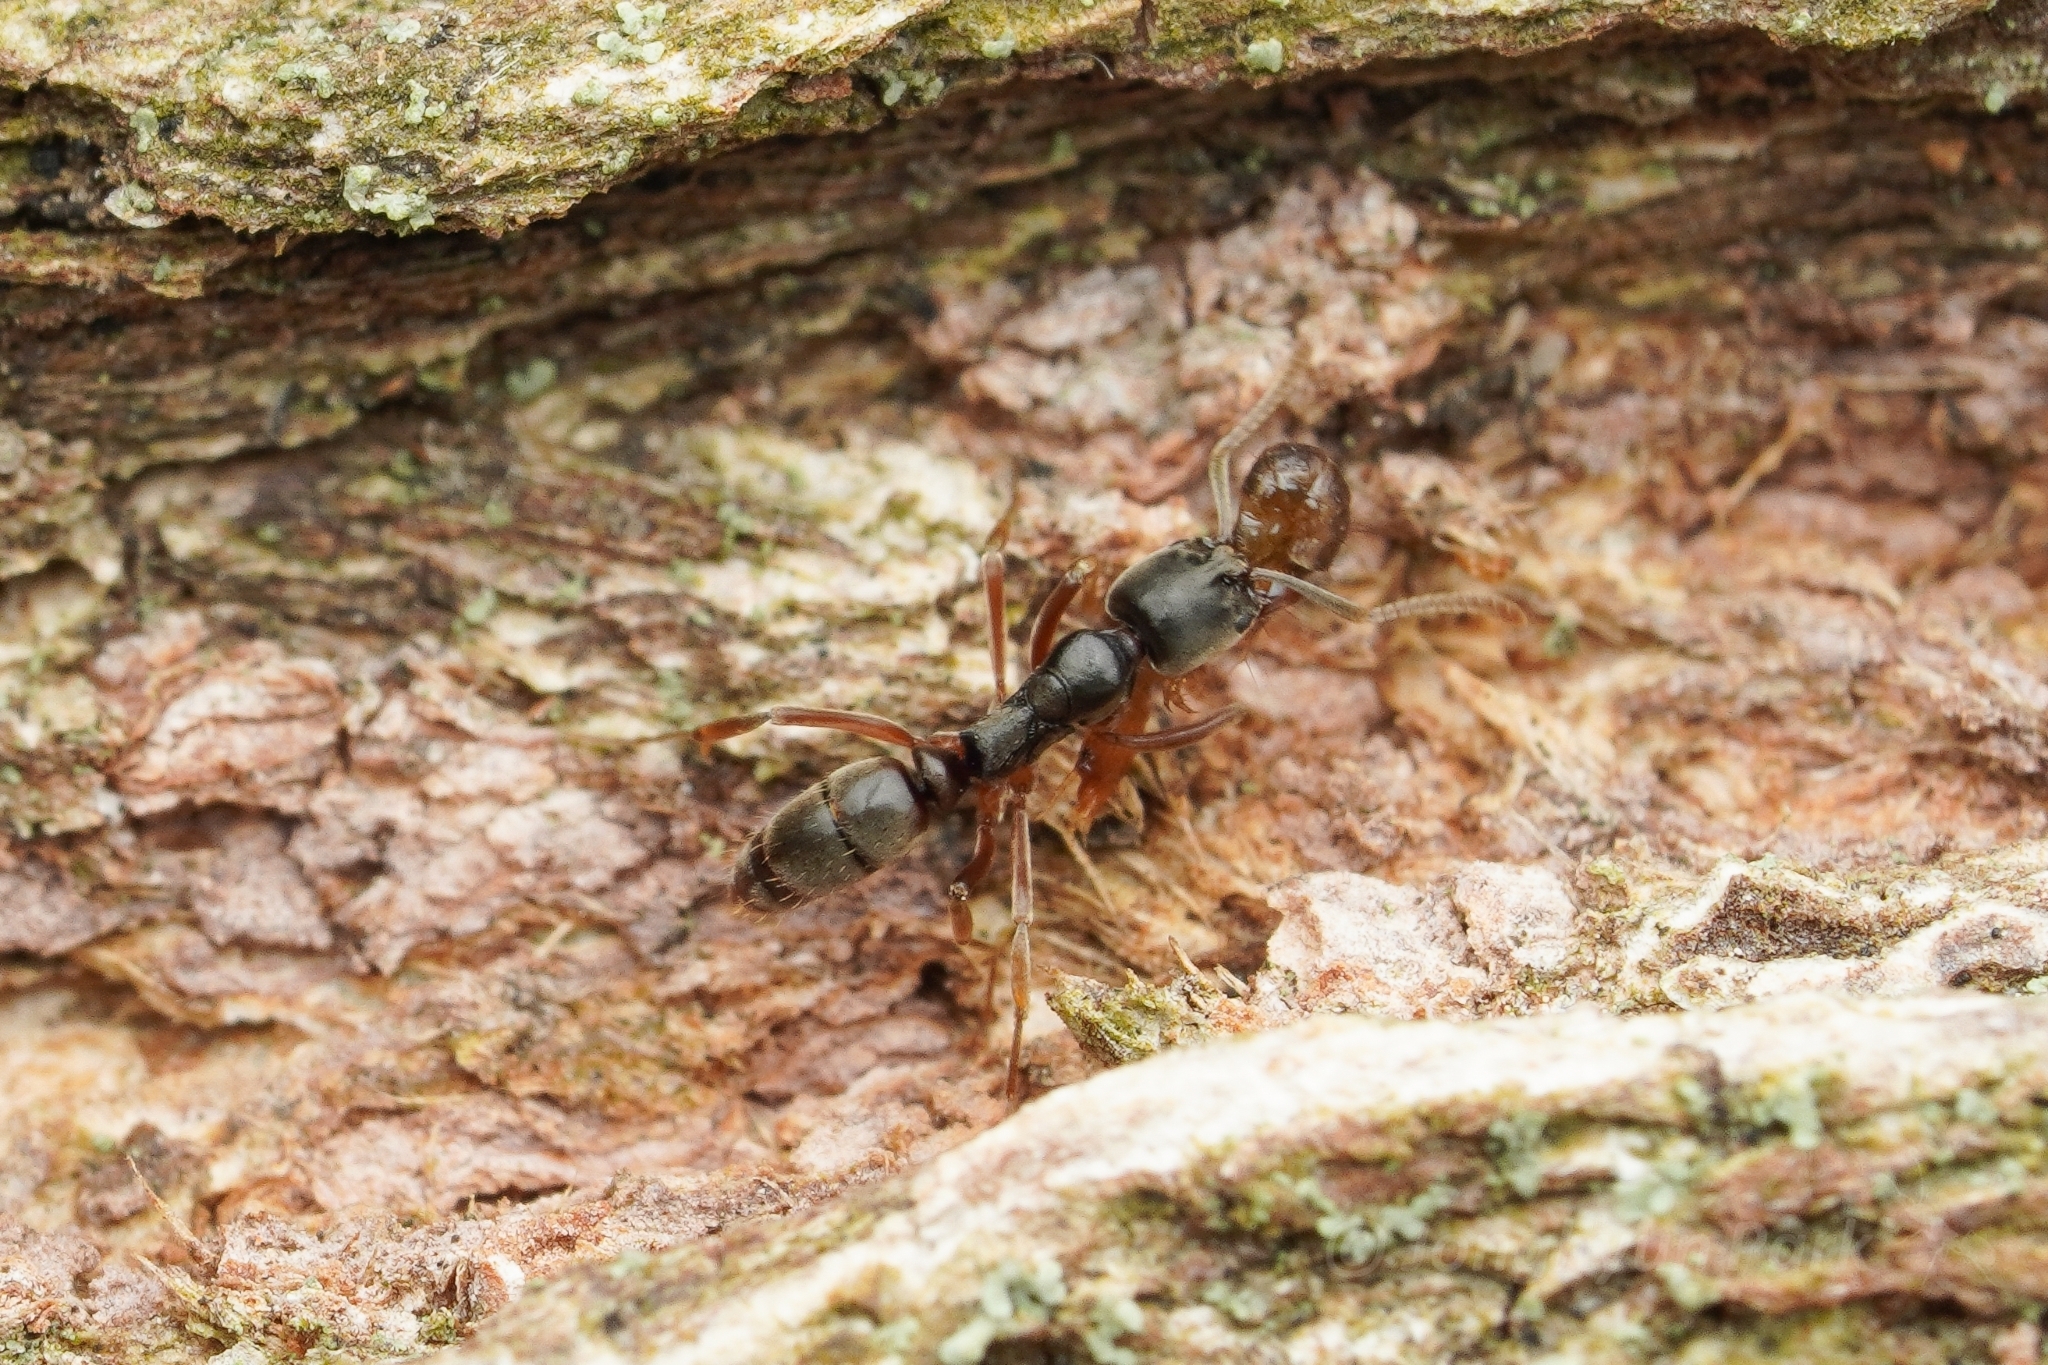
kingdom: Animalia
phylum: Arthropoda
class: Insecta
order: Hymenoptera
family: Formicidae
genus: Pachycondyla
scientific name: Pachycondyla chinensis
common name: Asian needle ant
